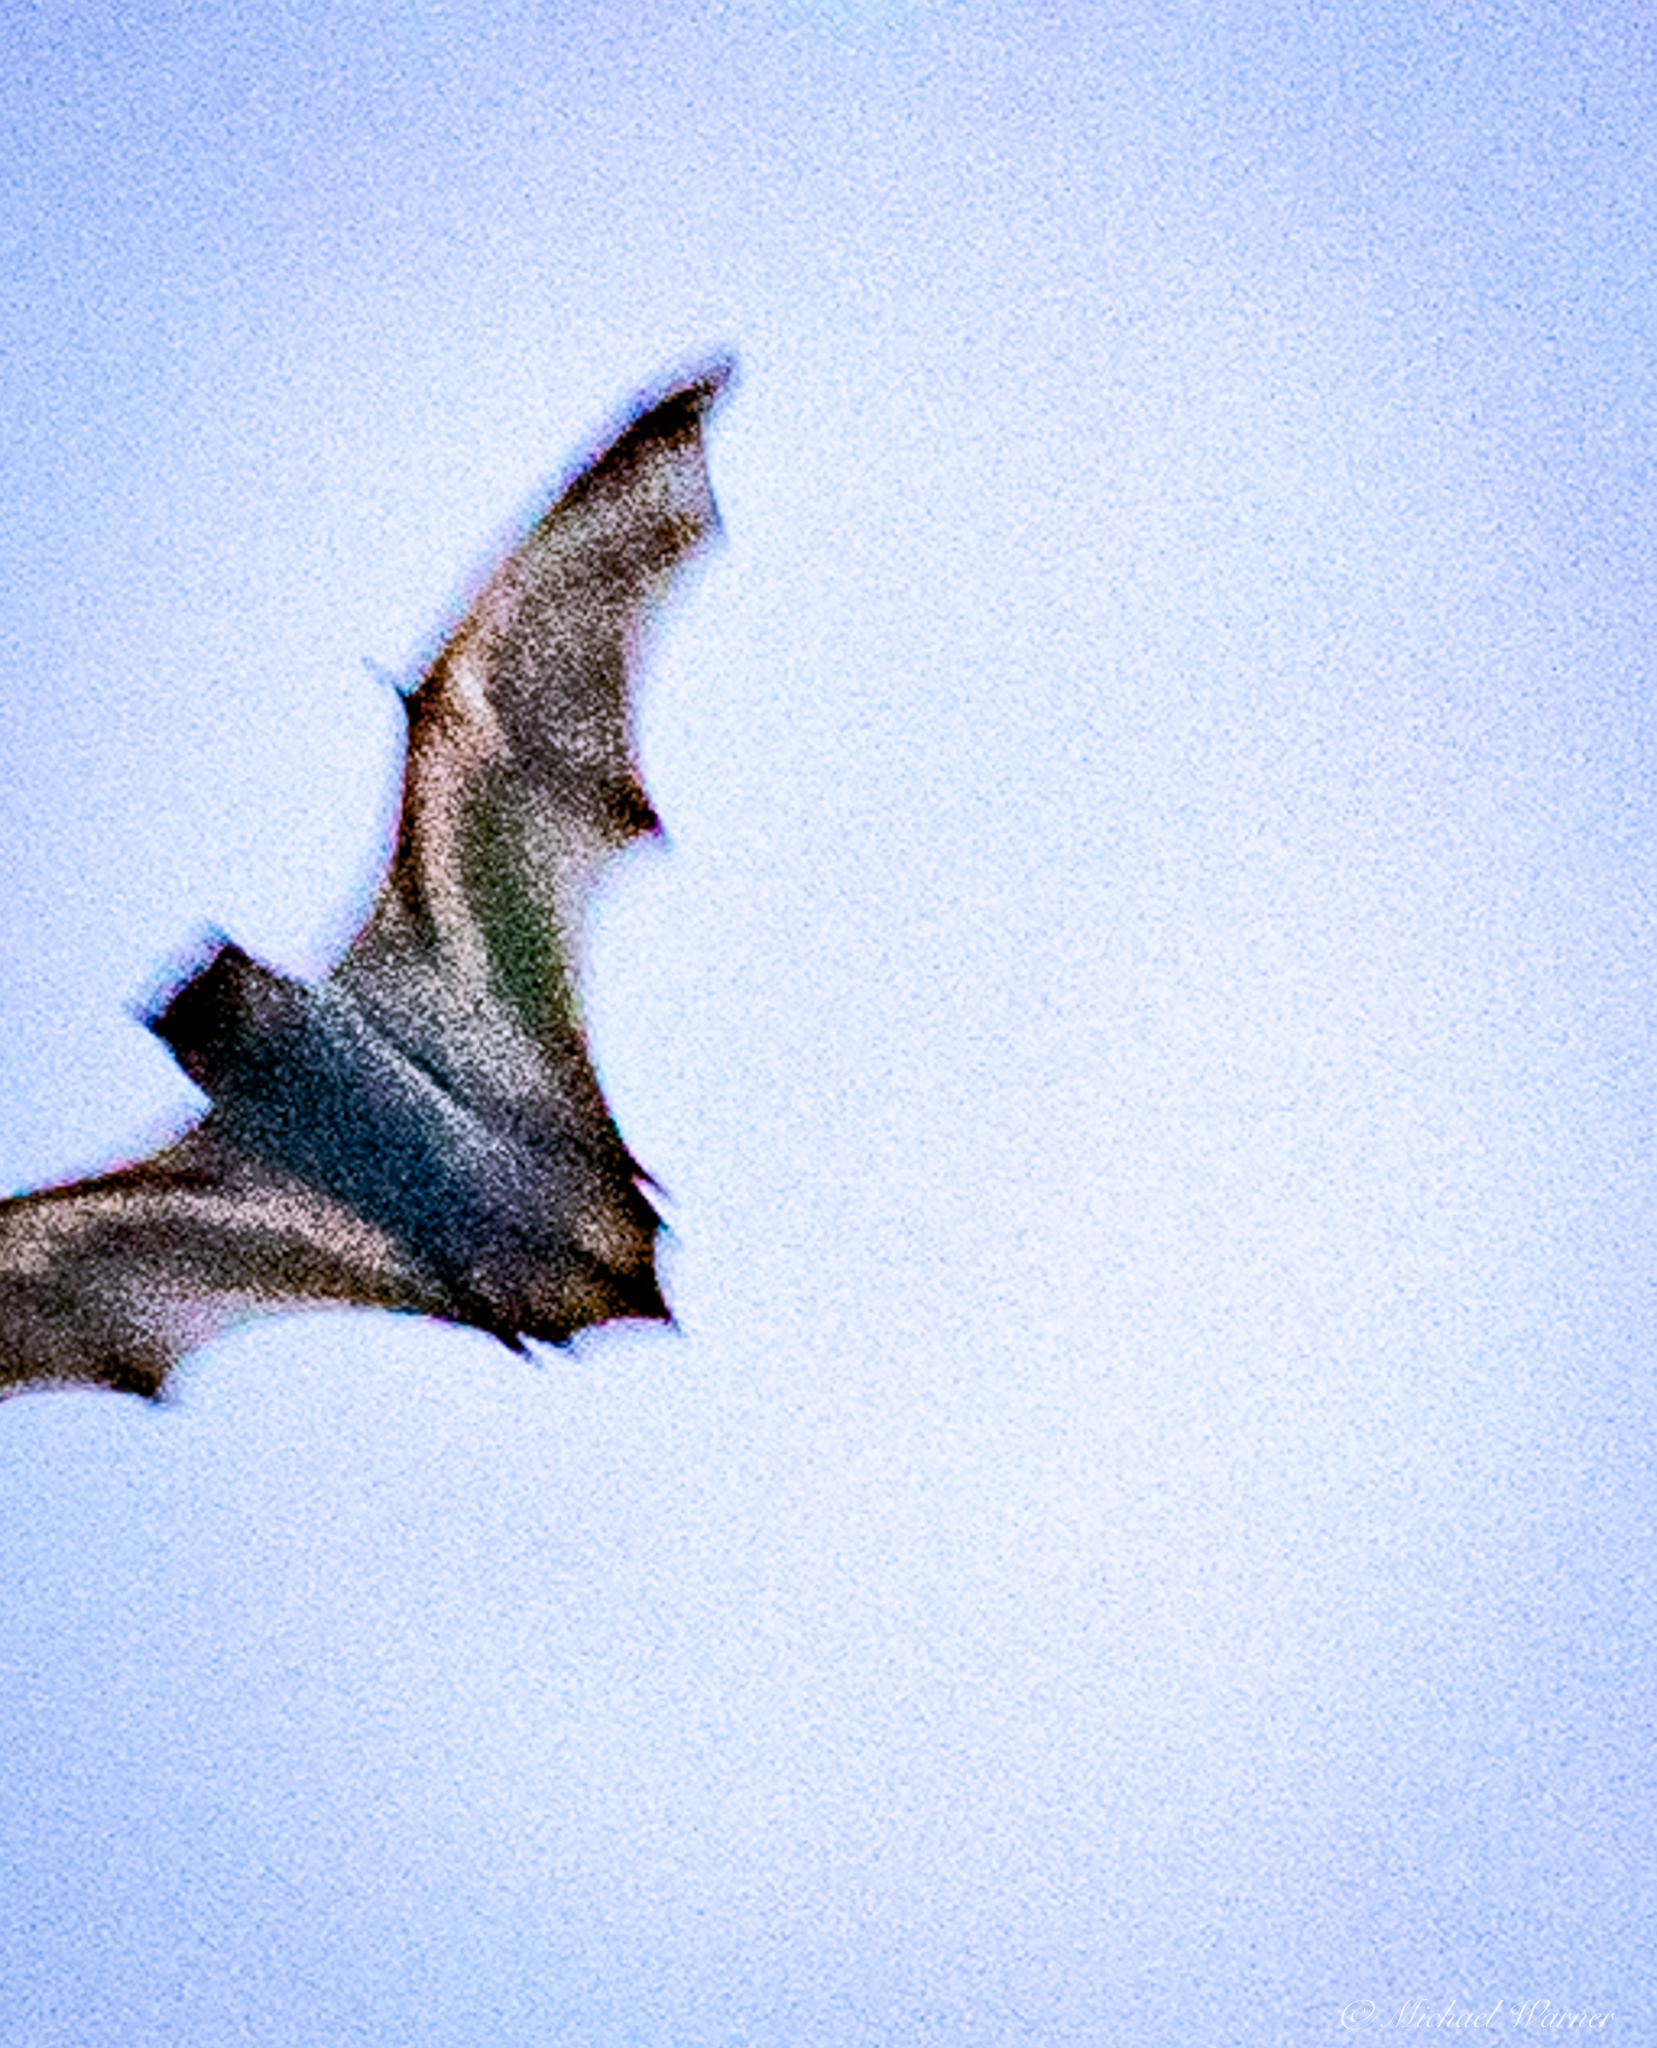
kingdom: Animalia
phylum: Chordata
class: Mammalia
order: Chiroptera
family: Vespertilionidae
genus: Aeorestes
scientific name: Aeorestes cinereus
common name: North american hoary bat
